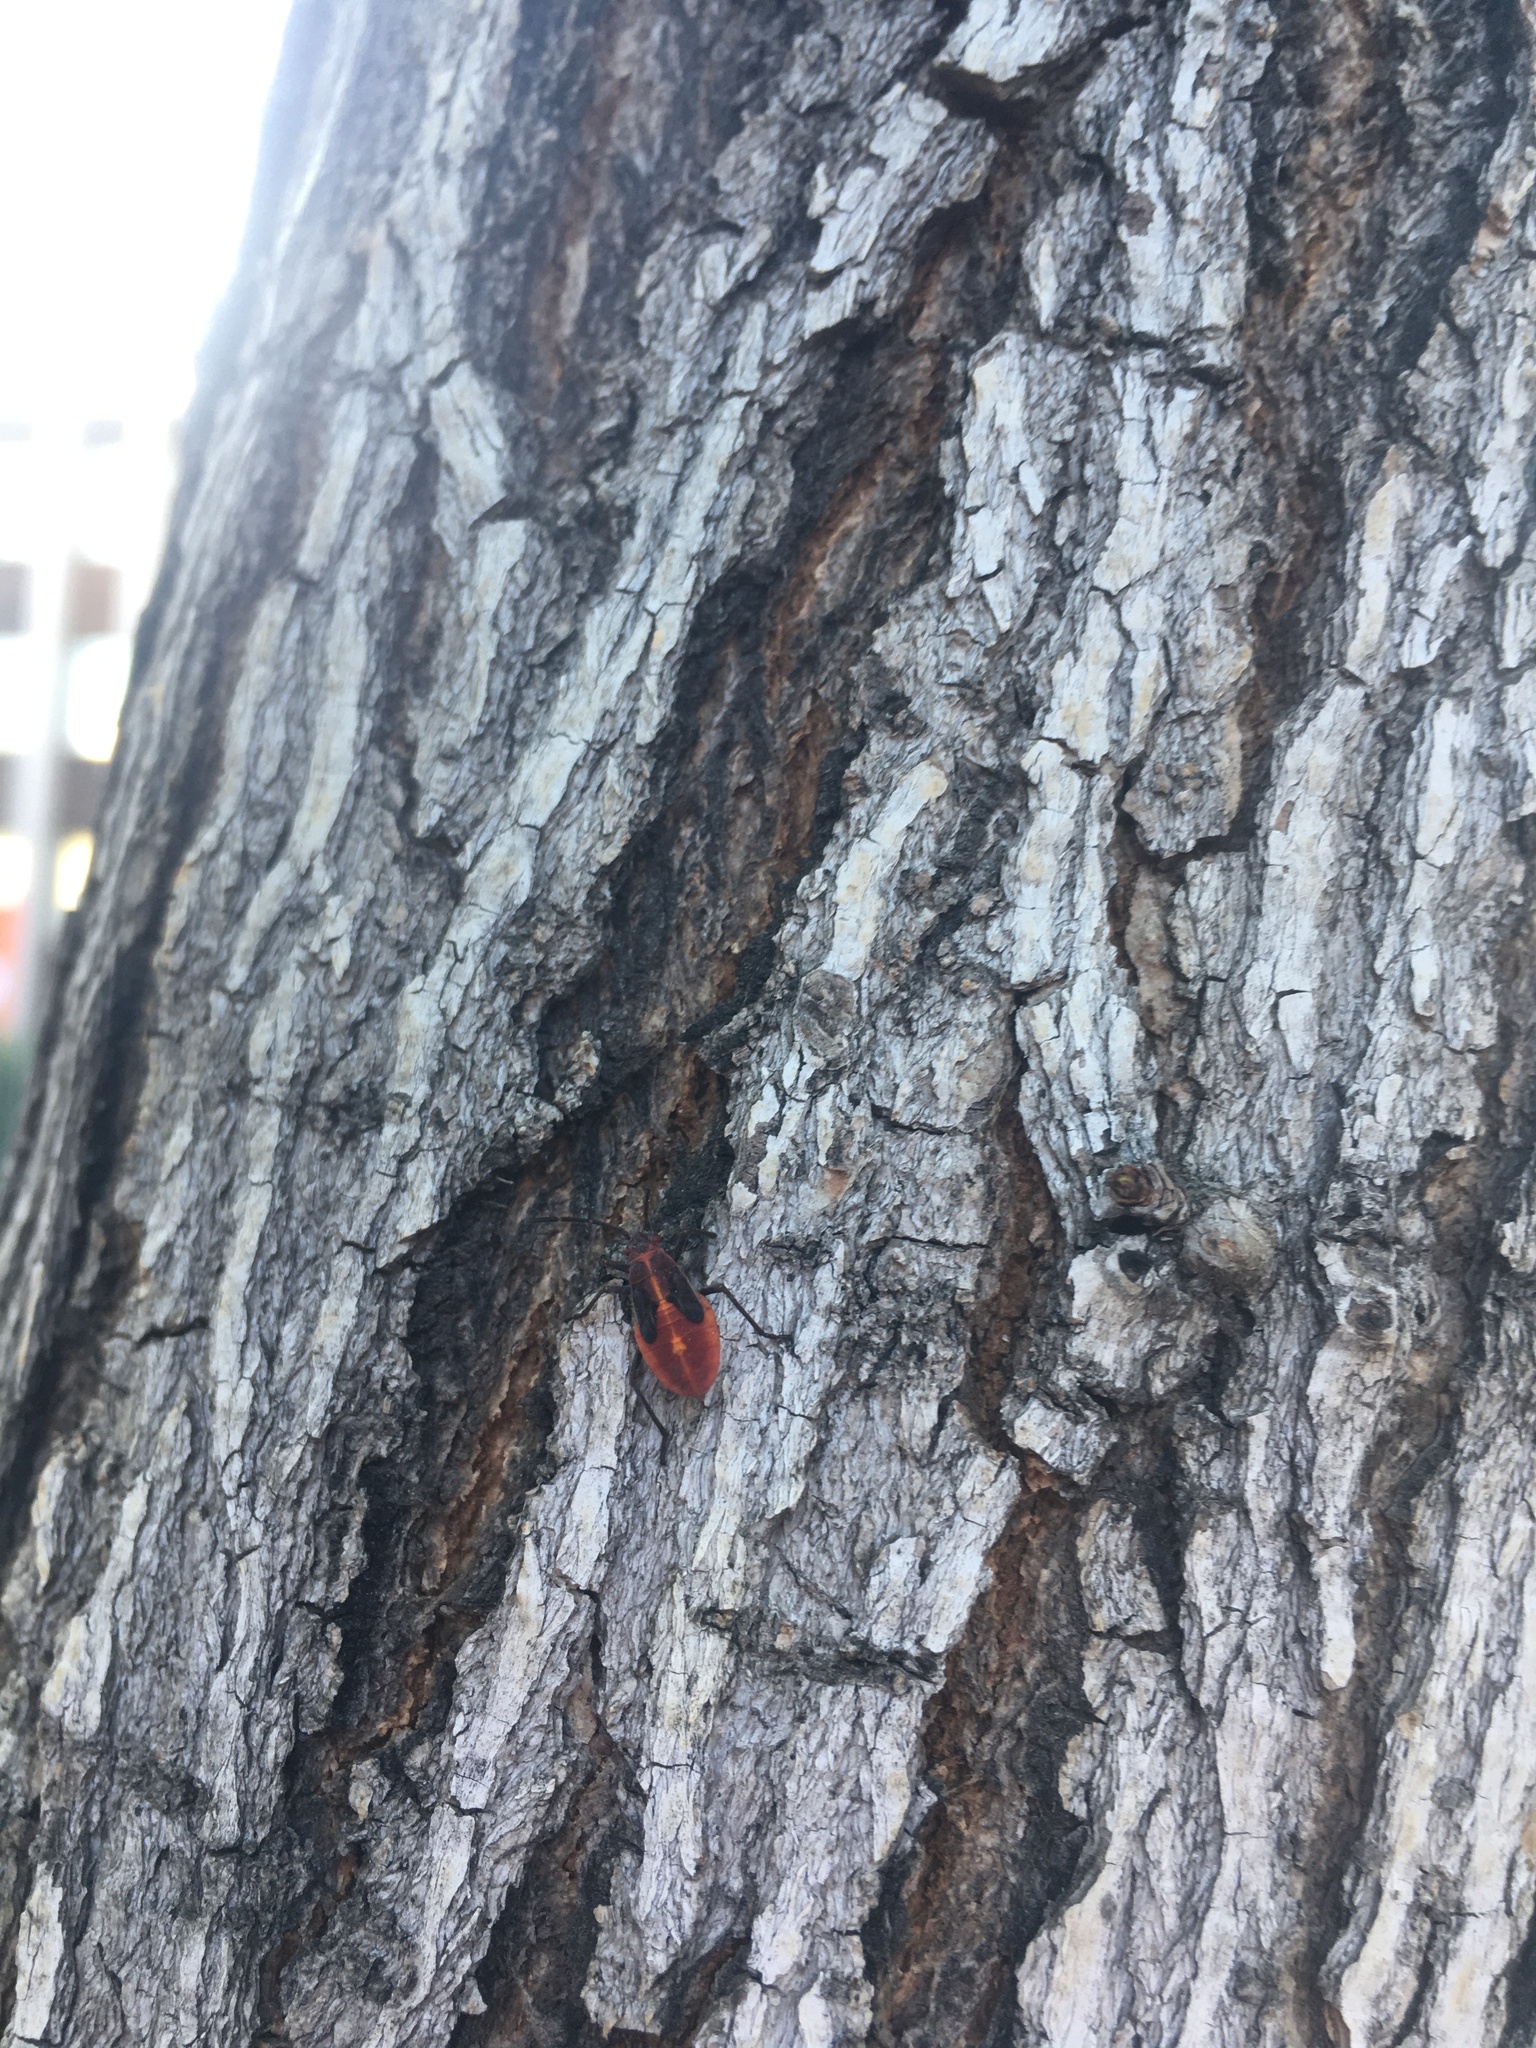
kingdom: Animalia
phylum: Arthropoda
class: Insecta
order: Hemiptera
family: Rhopalidae
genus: Boisea
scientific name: Boisea trivittata
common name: Boxelder bug
